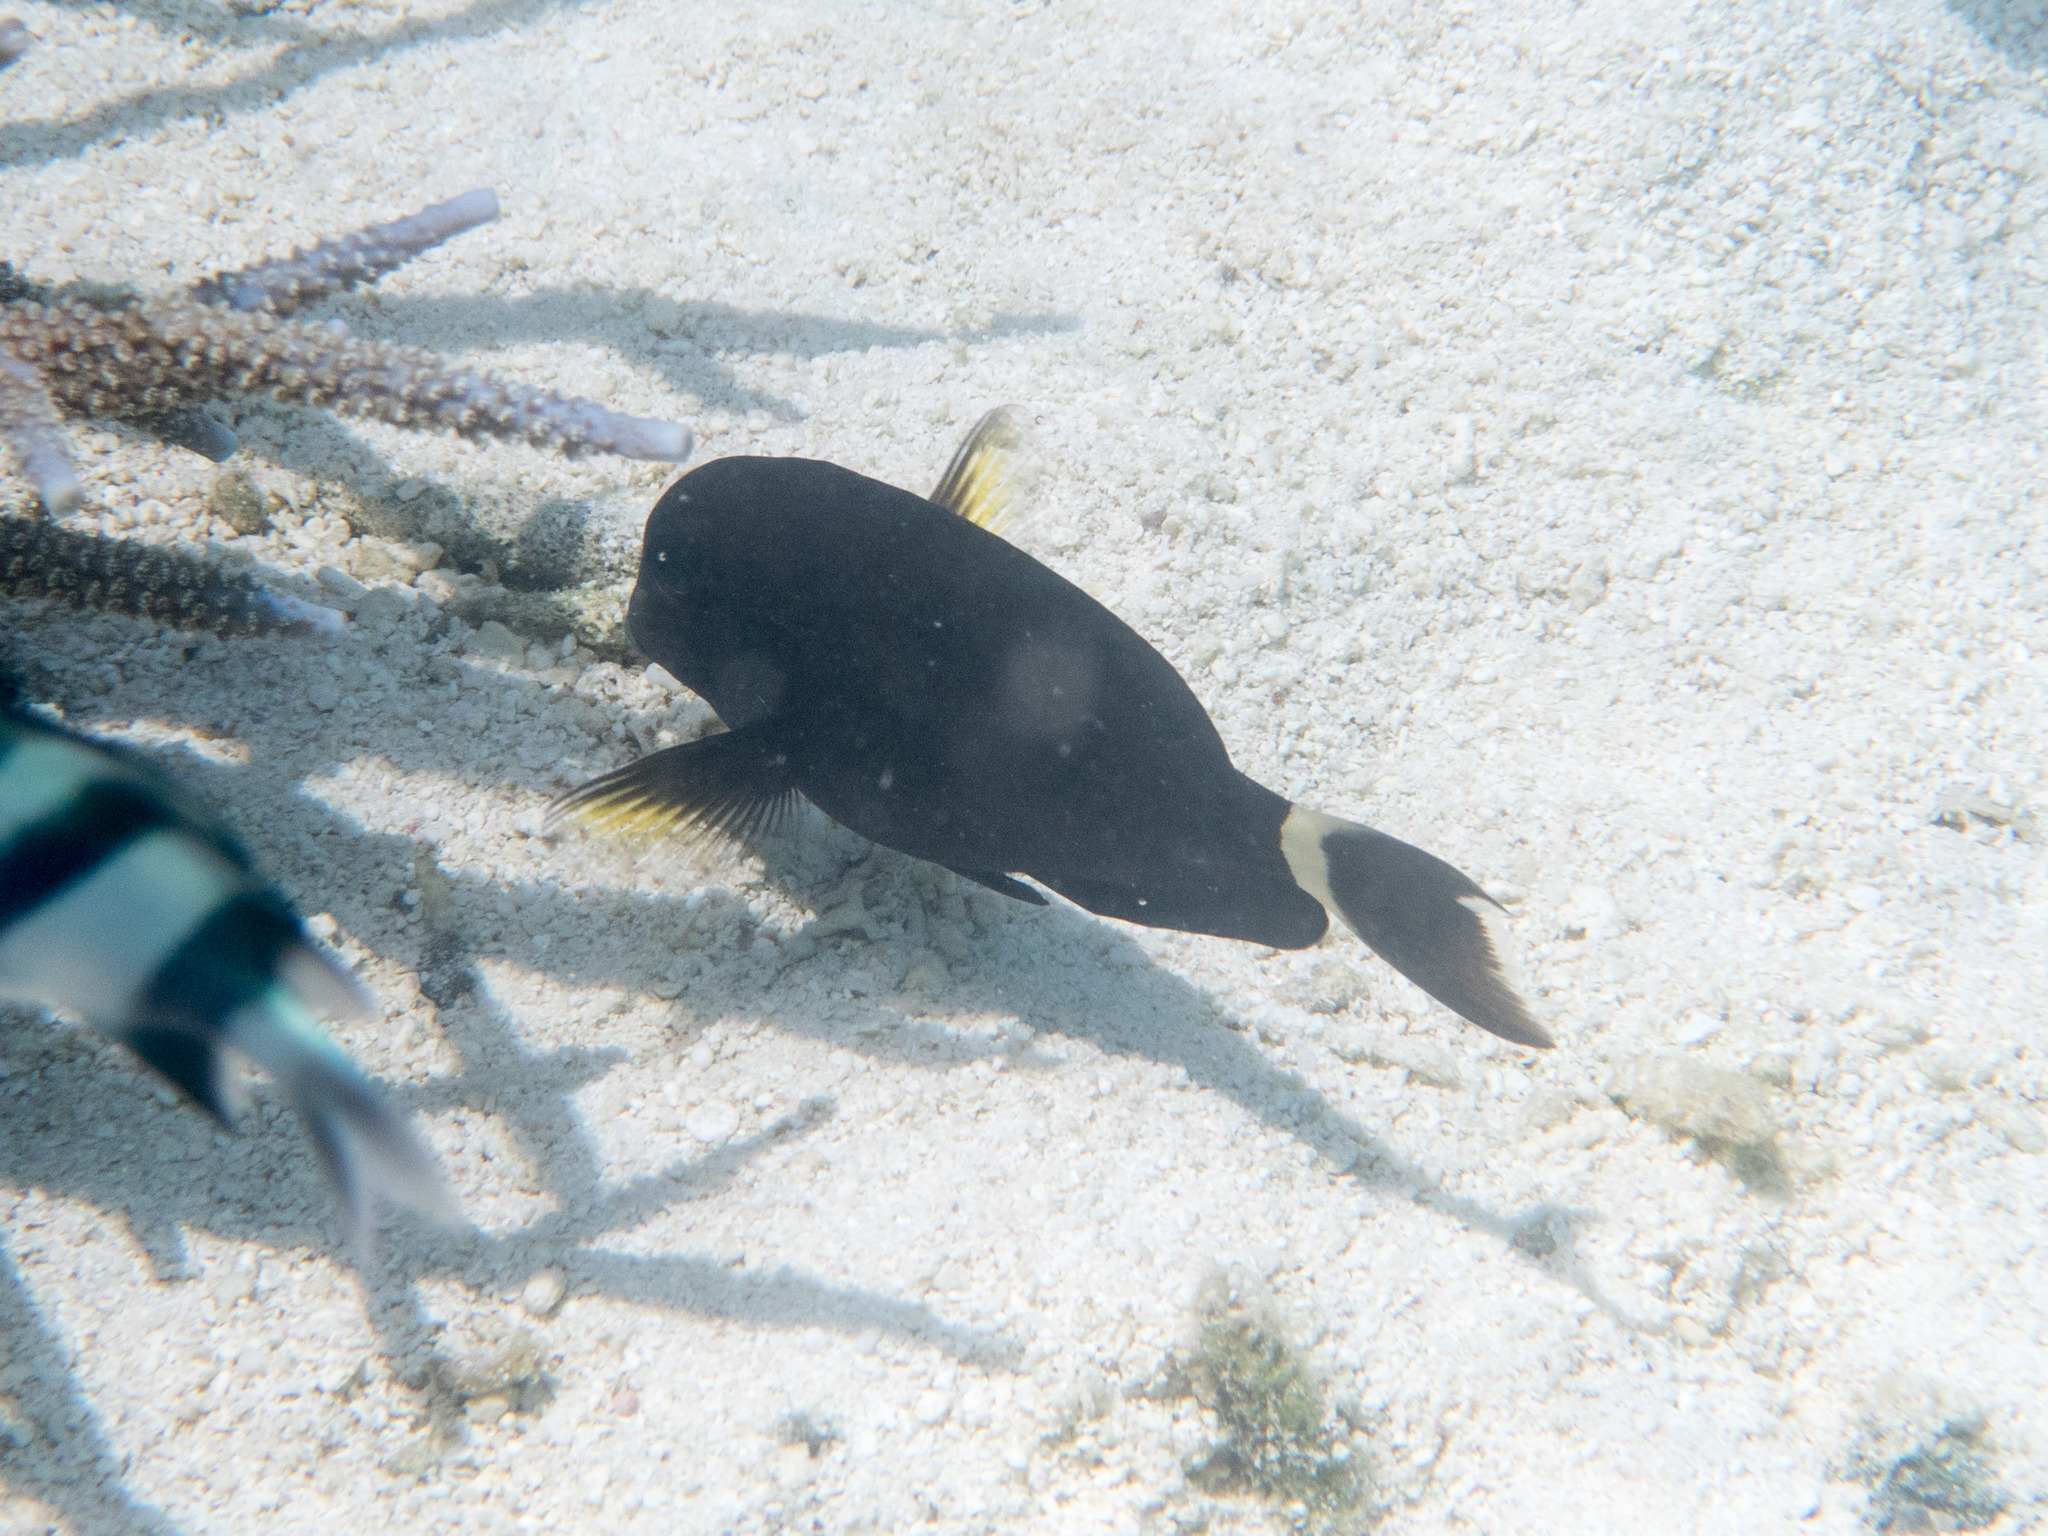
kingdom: Animalia
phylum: Chordata
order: Perciformes
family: Acanthuridae
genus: Acanthurus
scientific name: Acanthurus auranticavus
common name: Orange-socket surgeonfish
